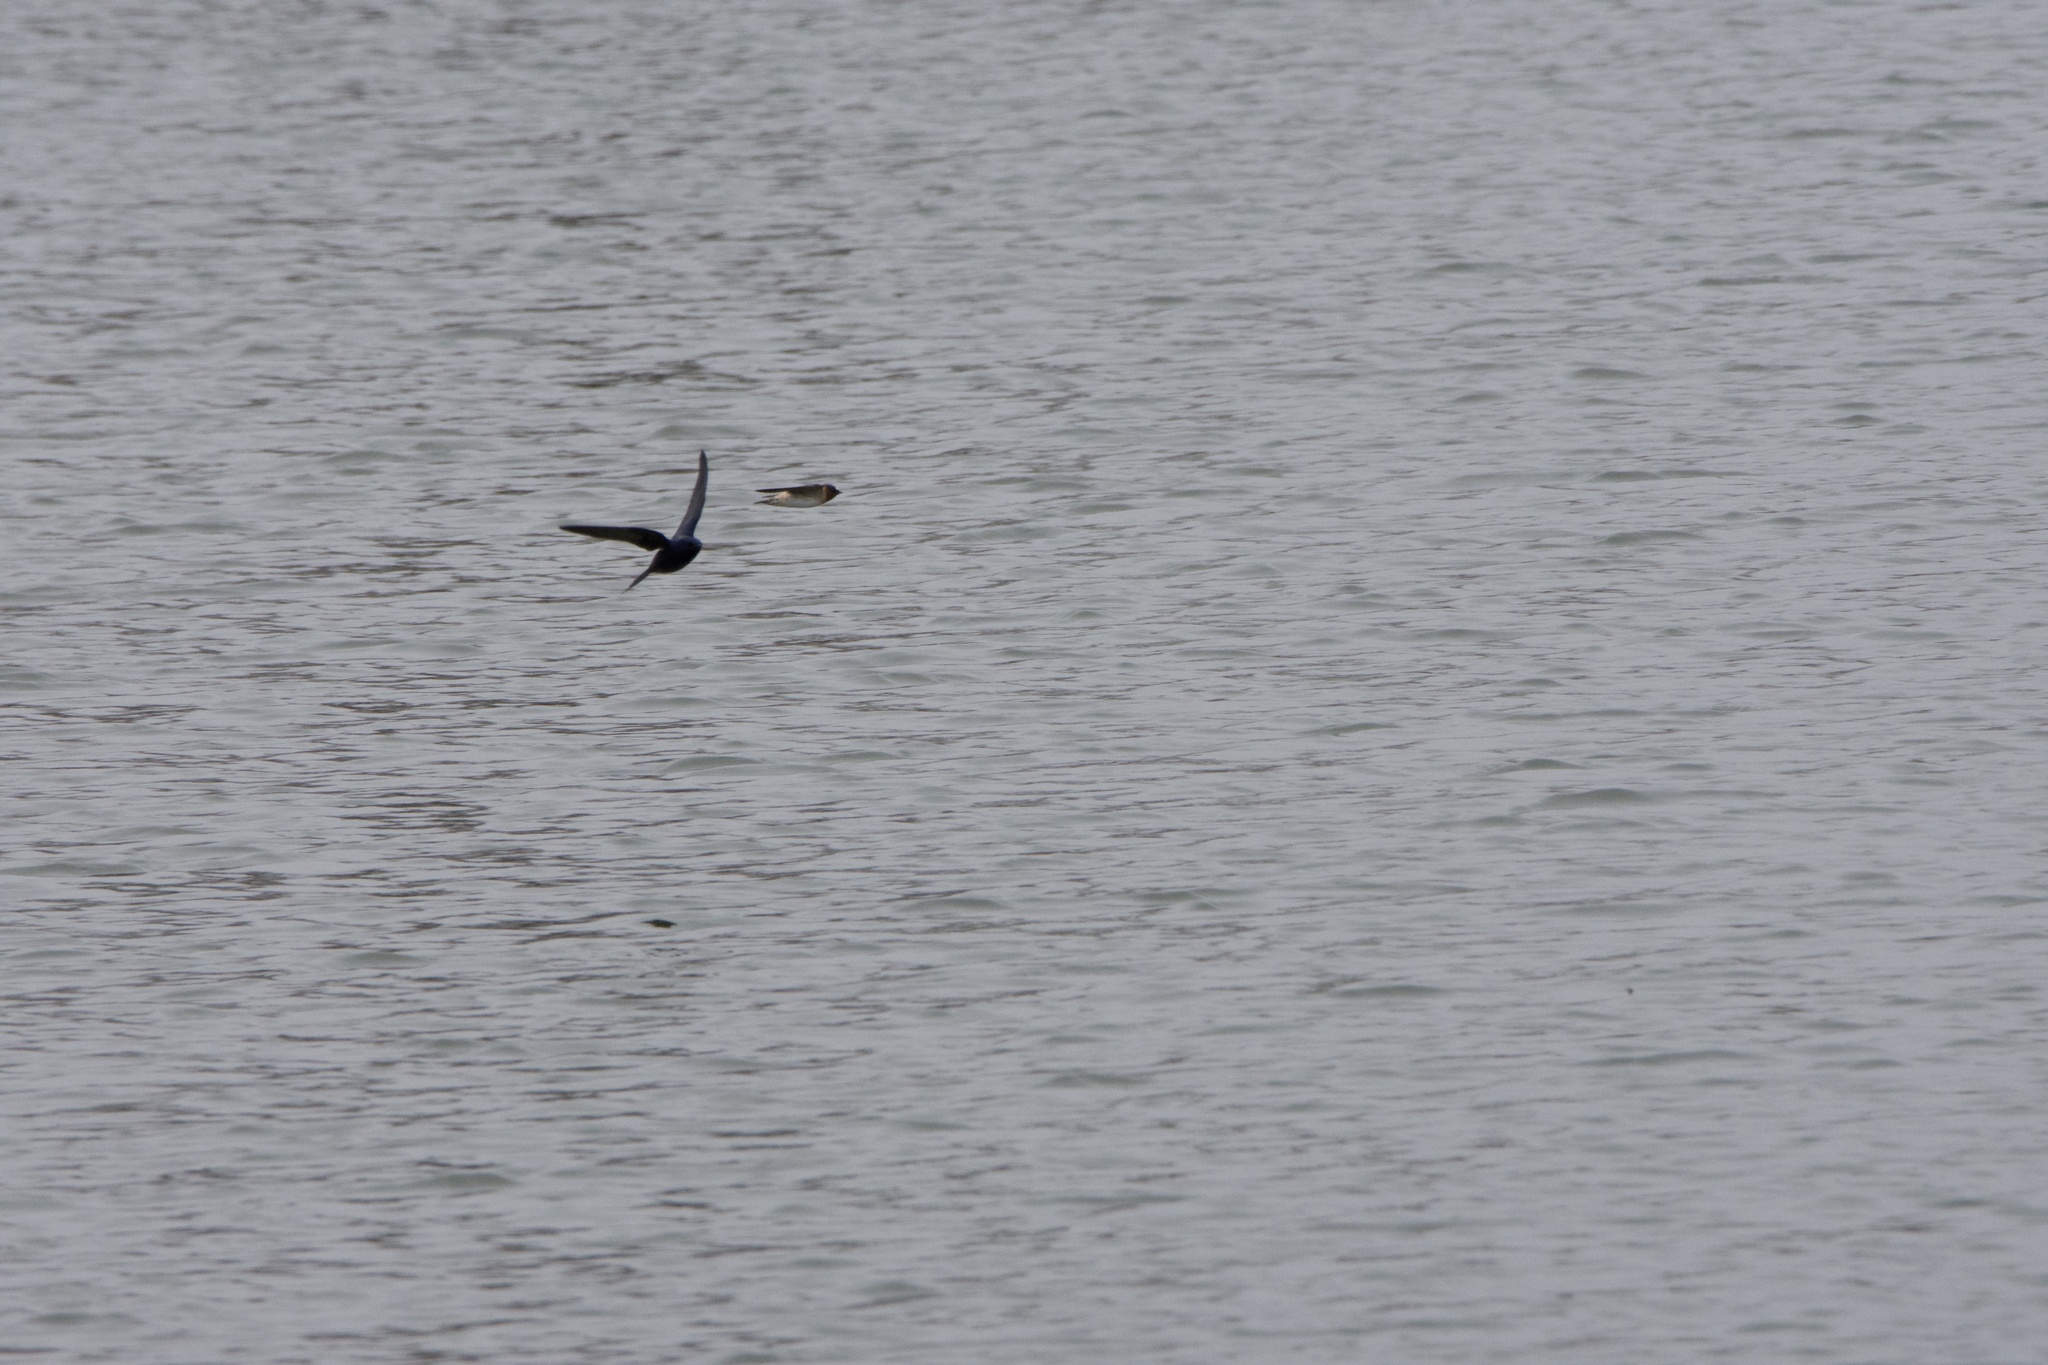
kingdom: Animalia
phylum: Chordata
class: Aves
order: Passeriformes
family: Hirundinidae
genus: Petrochelidon
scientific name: Petrochelidon pyrrhonota
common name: American cliff swallow
